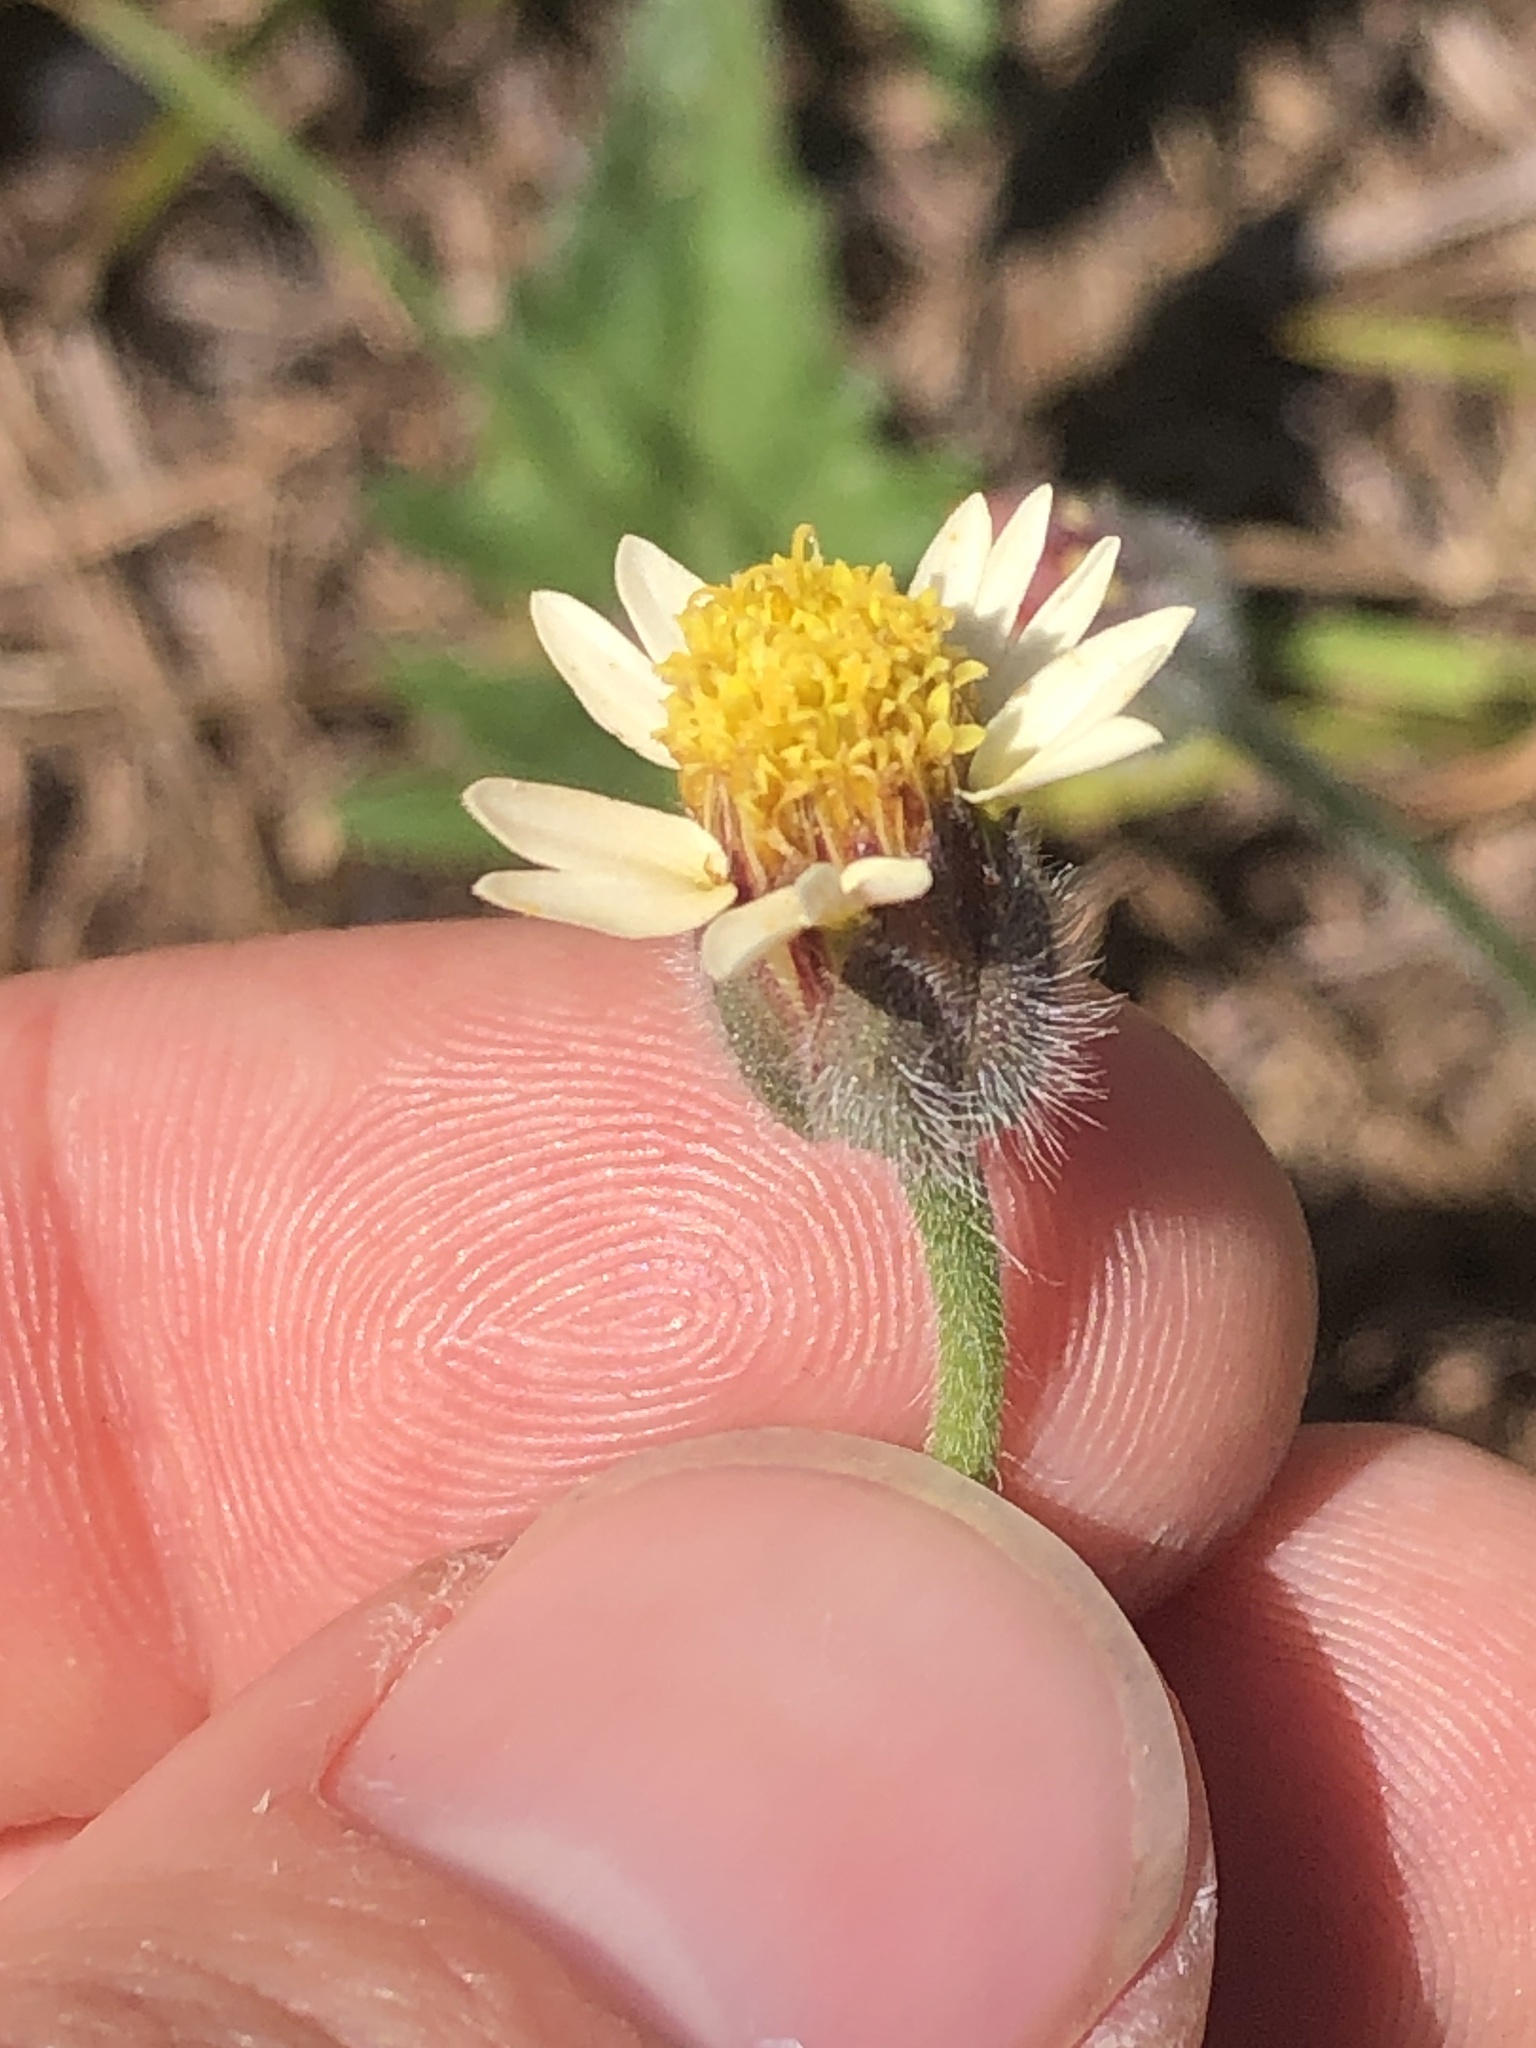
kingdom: Plantae
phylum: Tracheophyta
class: Magnoliopsida
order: Asterales
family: Asteraceae
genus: Tridax
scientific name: Tridax procumbens
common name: Coatbuttons
